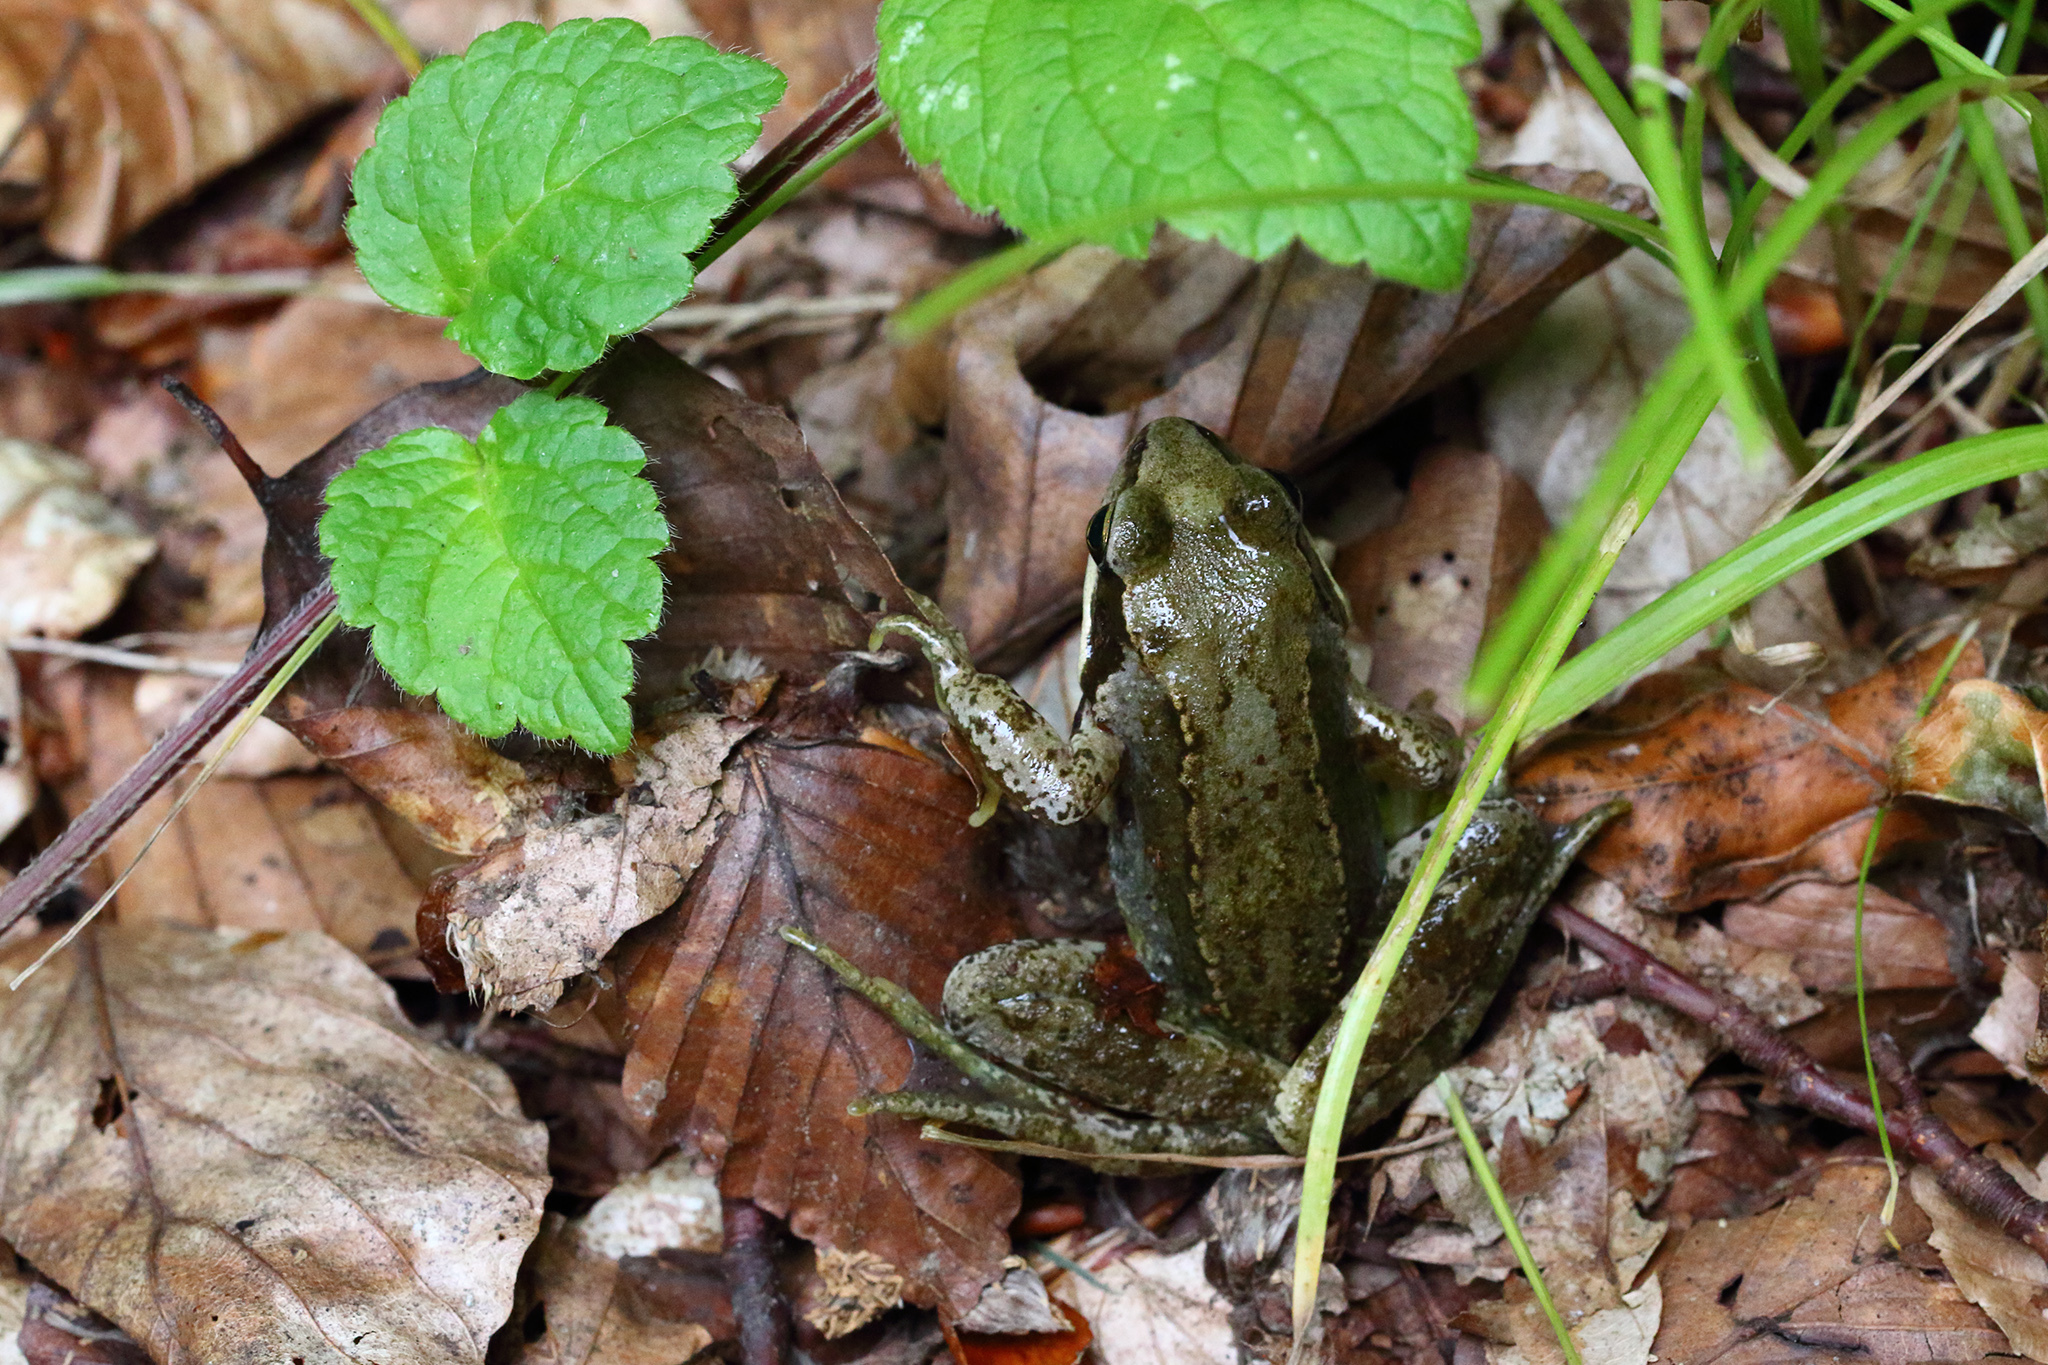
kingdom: Animalia
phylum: Chordata
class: Amphibia
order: Anura
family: Ranidae
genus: Rana
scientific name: Rana temporaria
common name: Common frog
